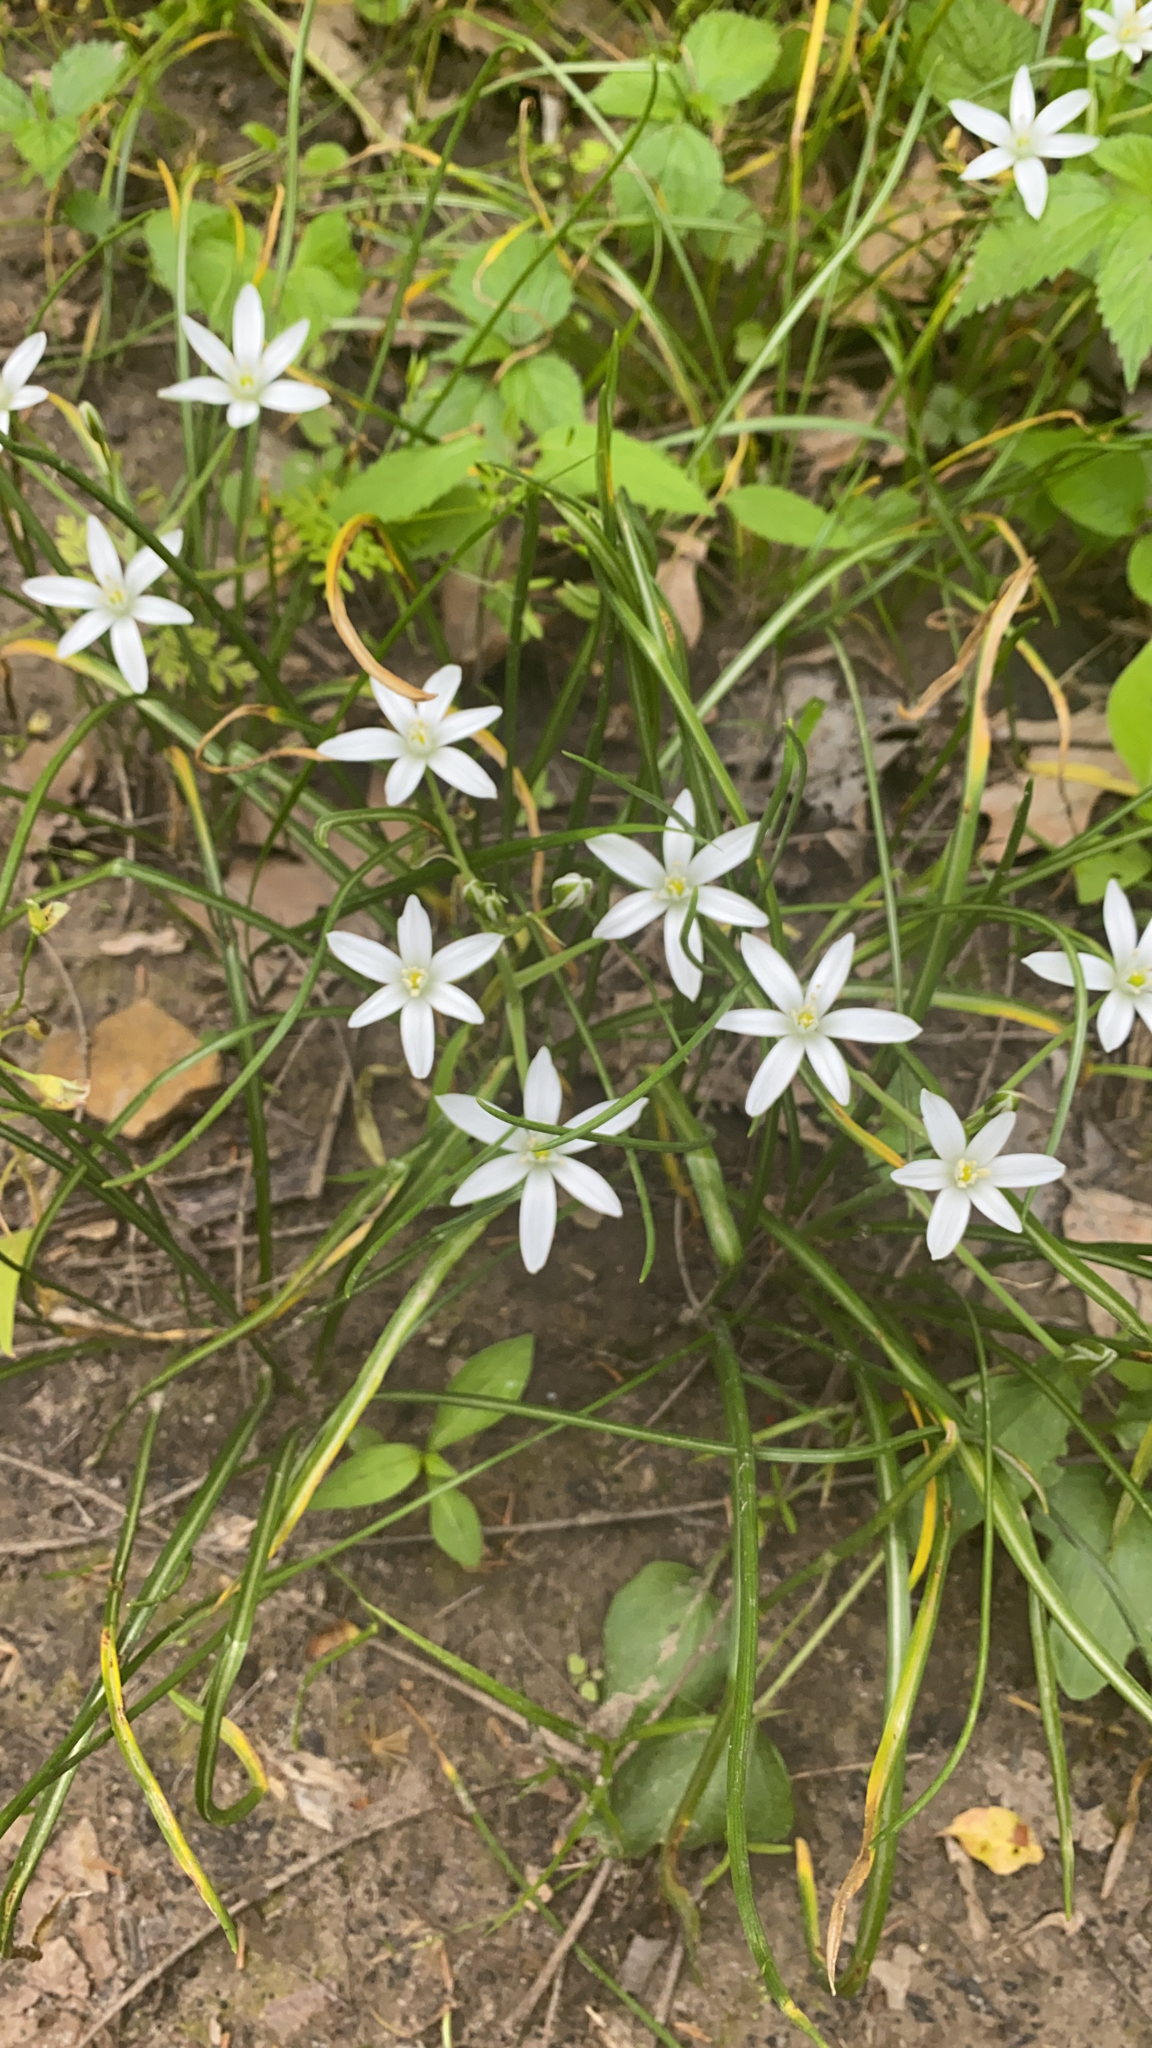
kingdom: Plantae
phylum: Tracheophyta
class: Liliopsida
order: Asparagales
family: Asparagaceae
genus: Ornithogalum
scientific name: Ornithogalum umbellatum
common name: Garden star-of-bethlehem
